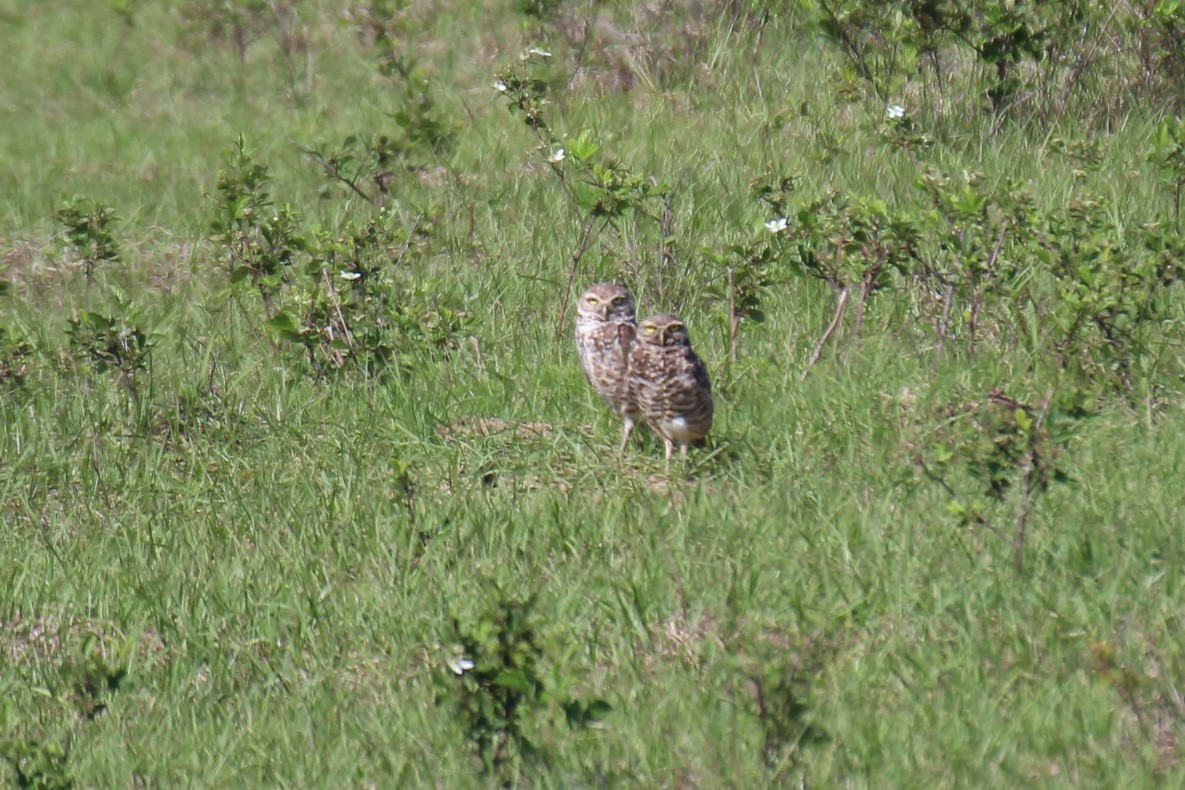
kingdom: Animalia
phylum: Chordata
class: Aves
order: Strigiformes
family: Strigidae
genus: Athene
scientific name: Athene cunicularia
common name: Burrowing owl
